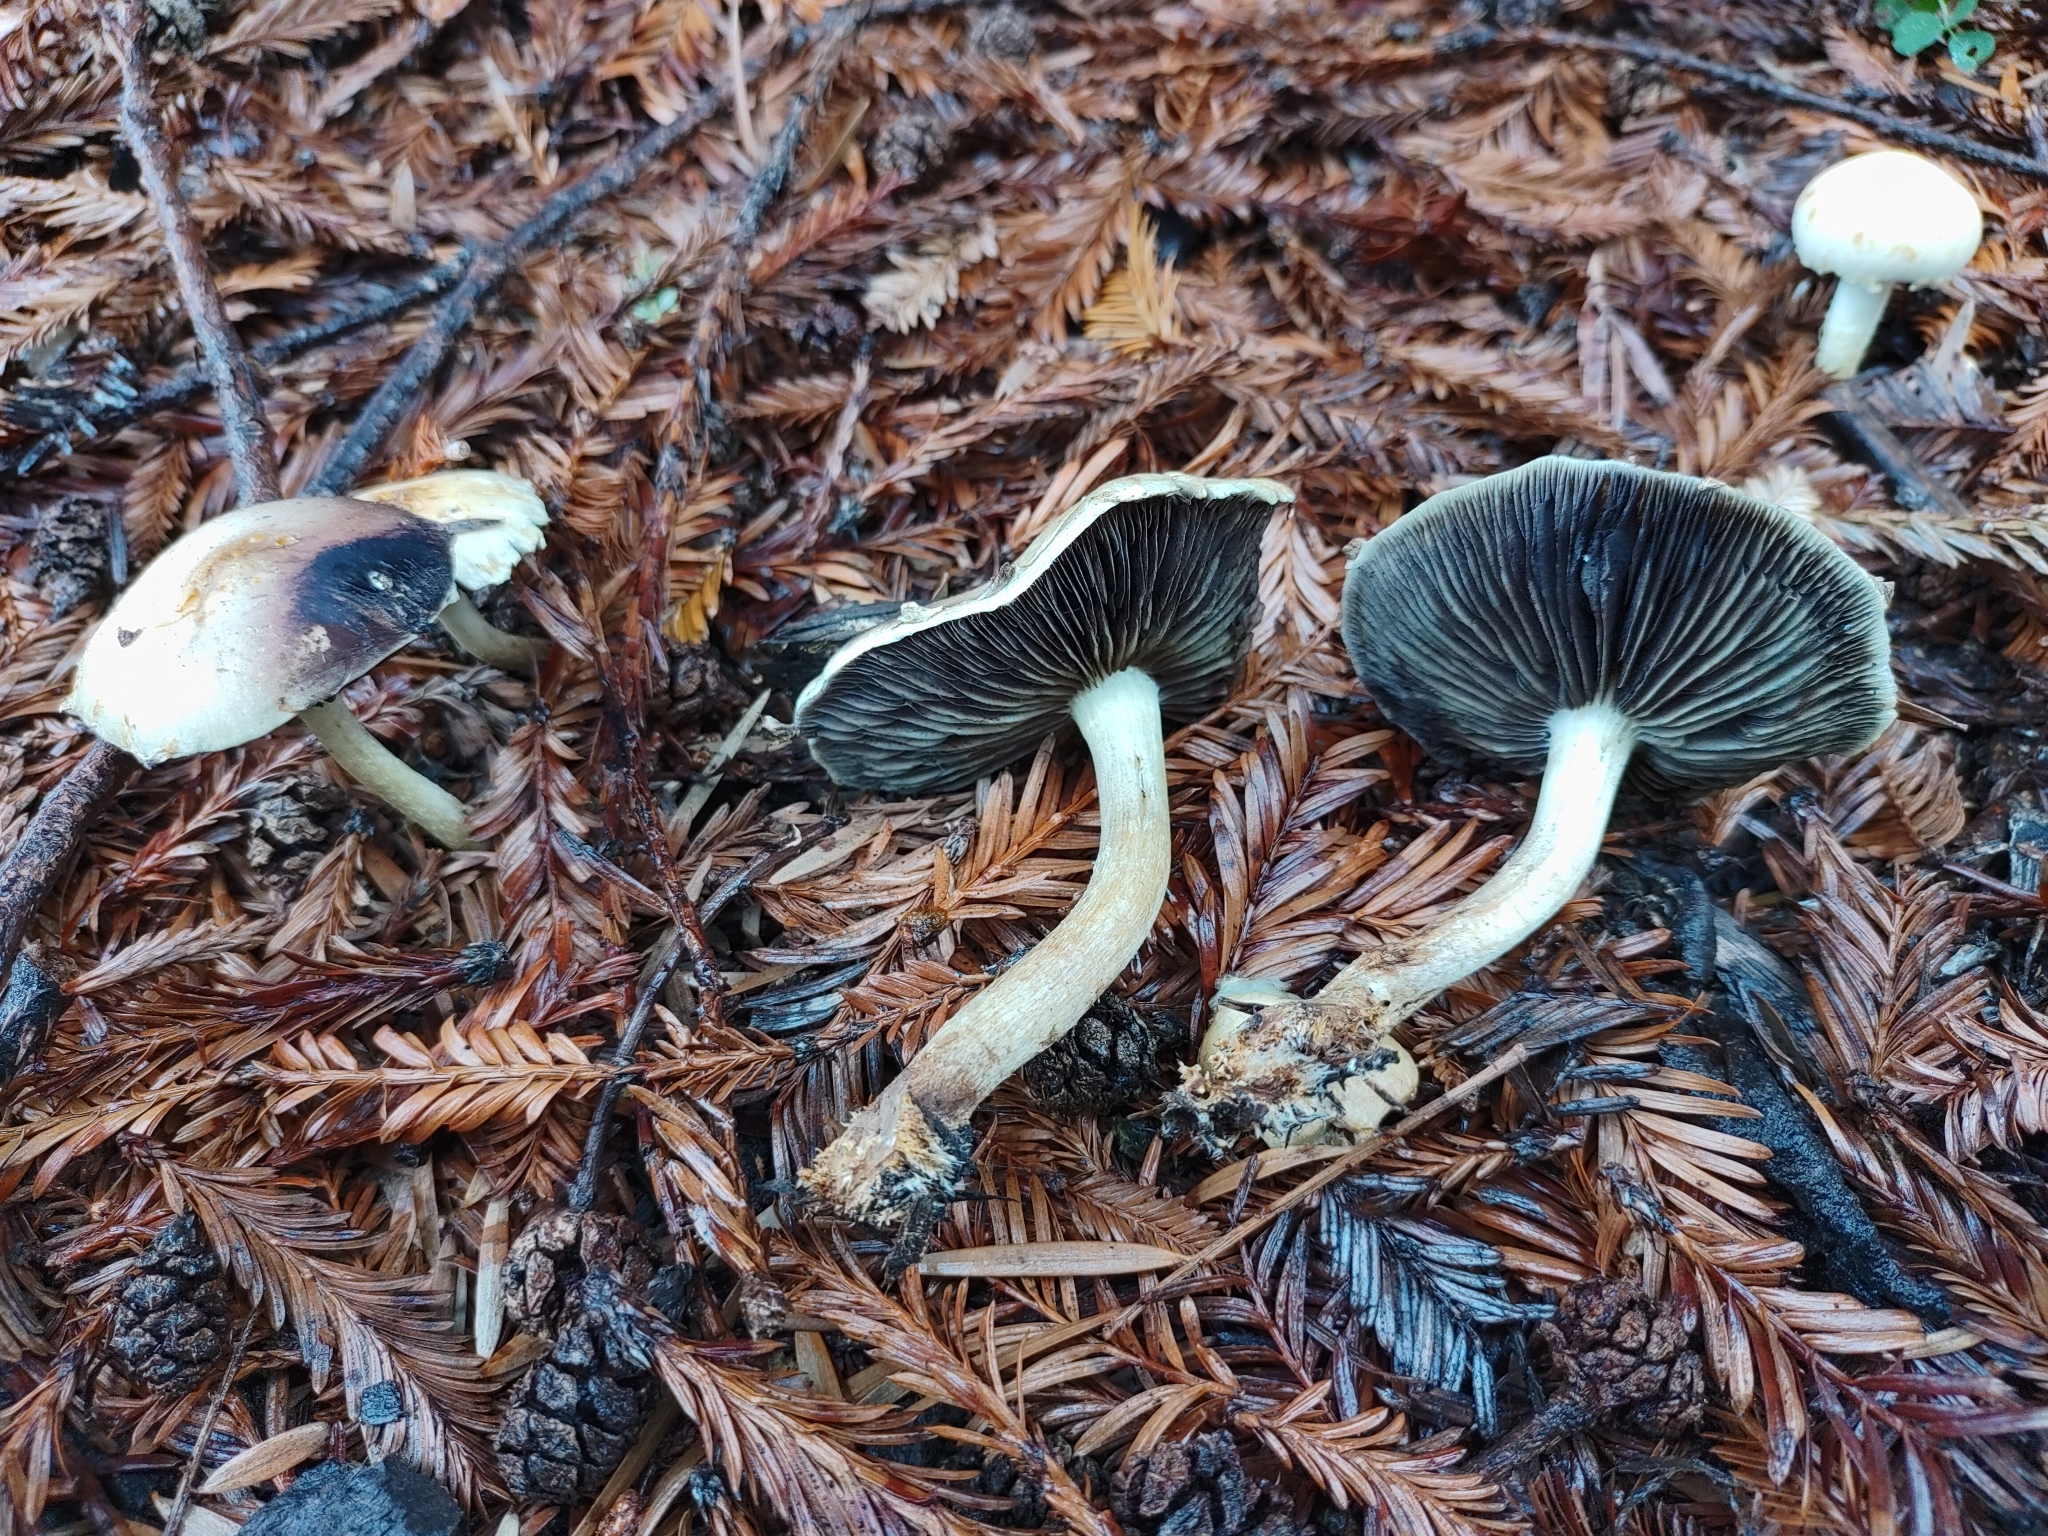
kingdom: Fungi
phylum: Basidiomycota
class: Agaricomycetes
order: Agaricales
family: Strophariaceae
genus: Leratiomyces
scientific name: Leratiomyces percevalii
